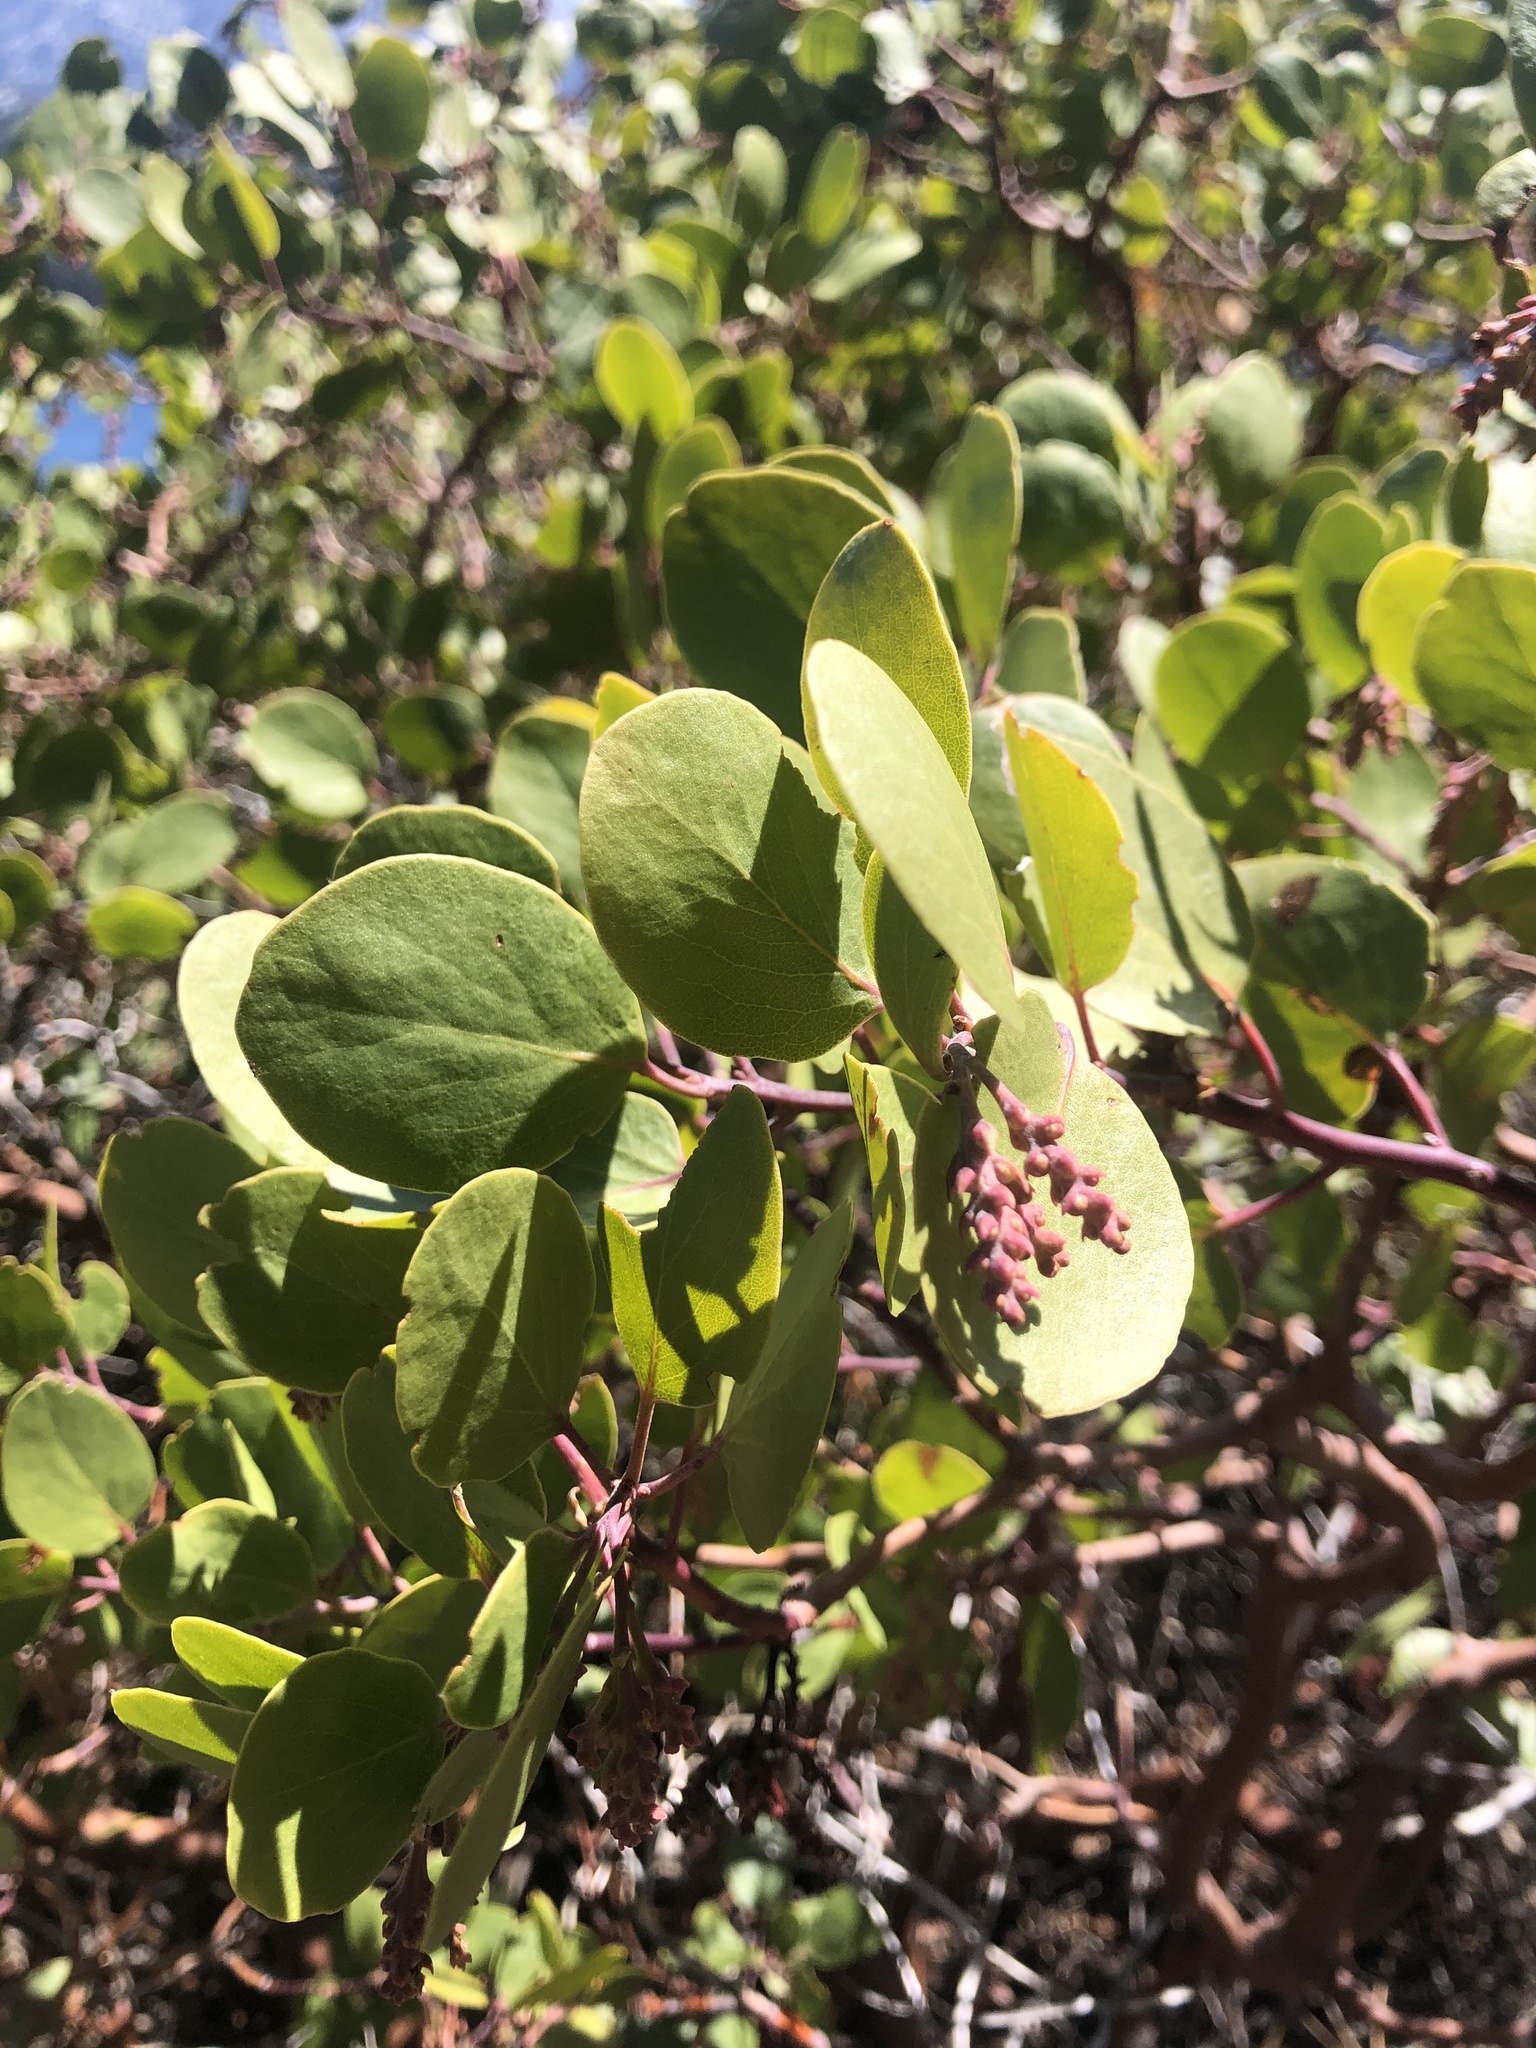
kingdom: Plantae
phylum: Tracheophyta
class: Magnoliopsida
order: Ericales
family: Ericaceae
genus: Arctostaphylos
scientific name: Arctostaphylos patula
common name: Green-leaf manzanita
